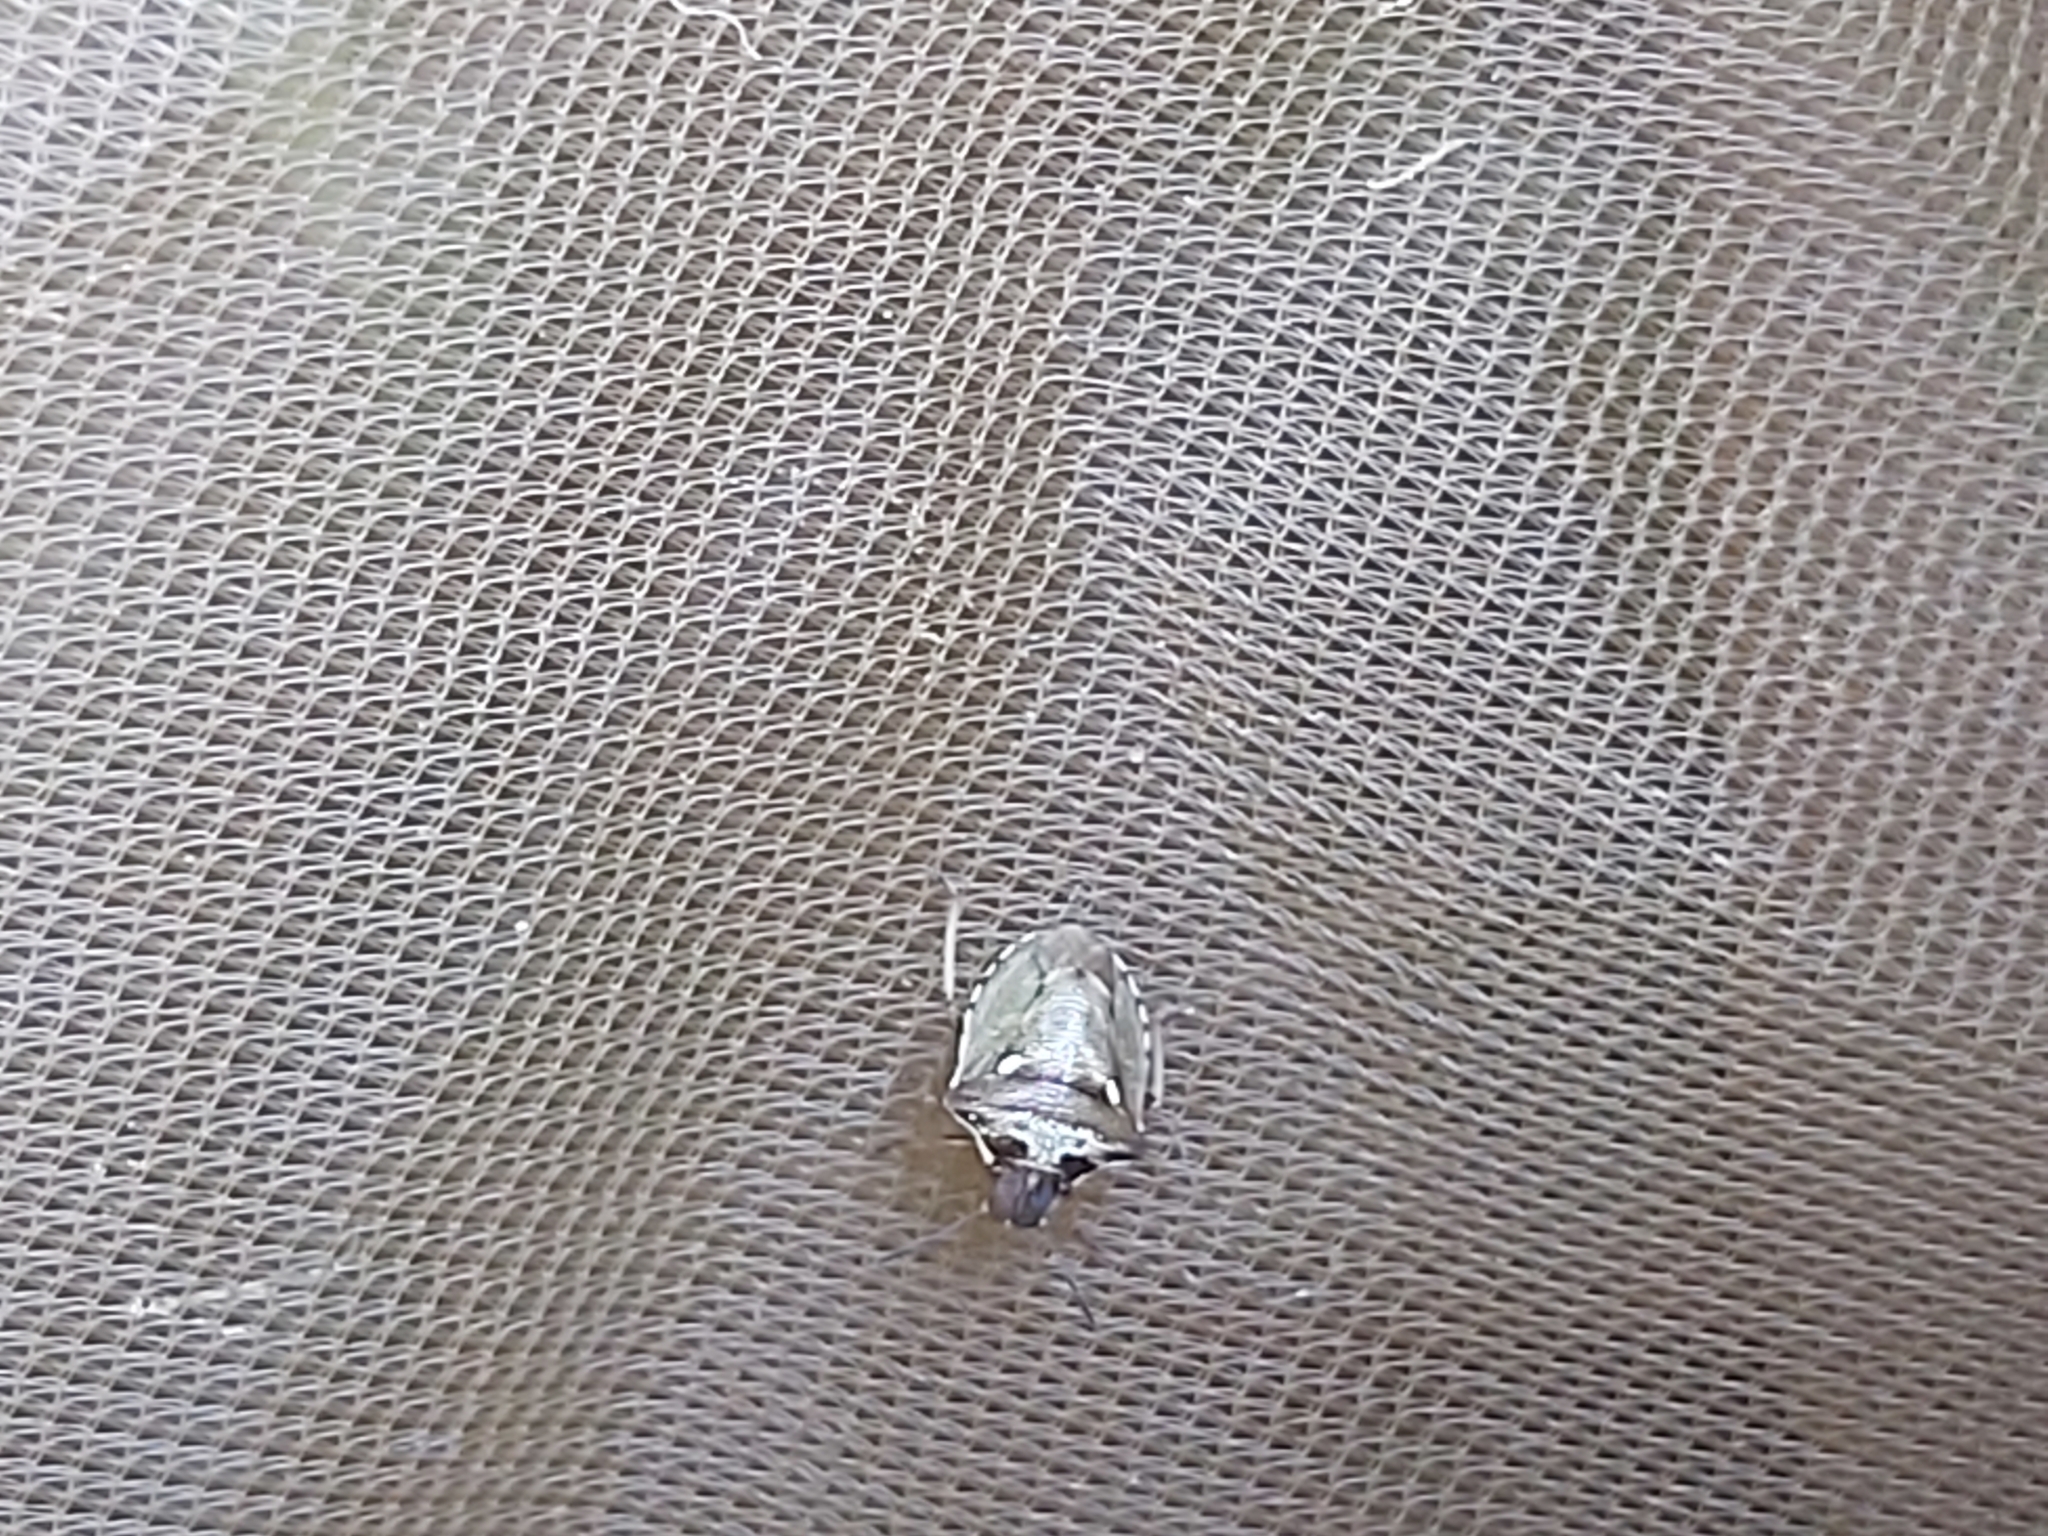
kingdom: Animalia
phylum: Arthropoda
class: Insecta
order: Hemiptera
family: Pentatomidae
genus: Eysarcoris
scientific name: Eysarcoris aeneus
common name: New forest shieldbug
